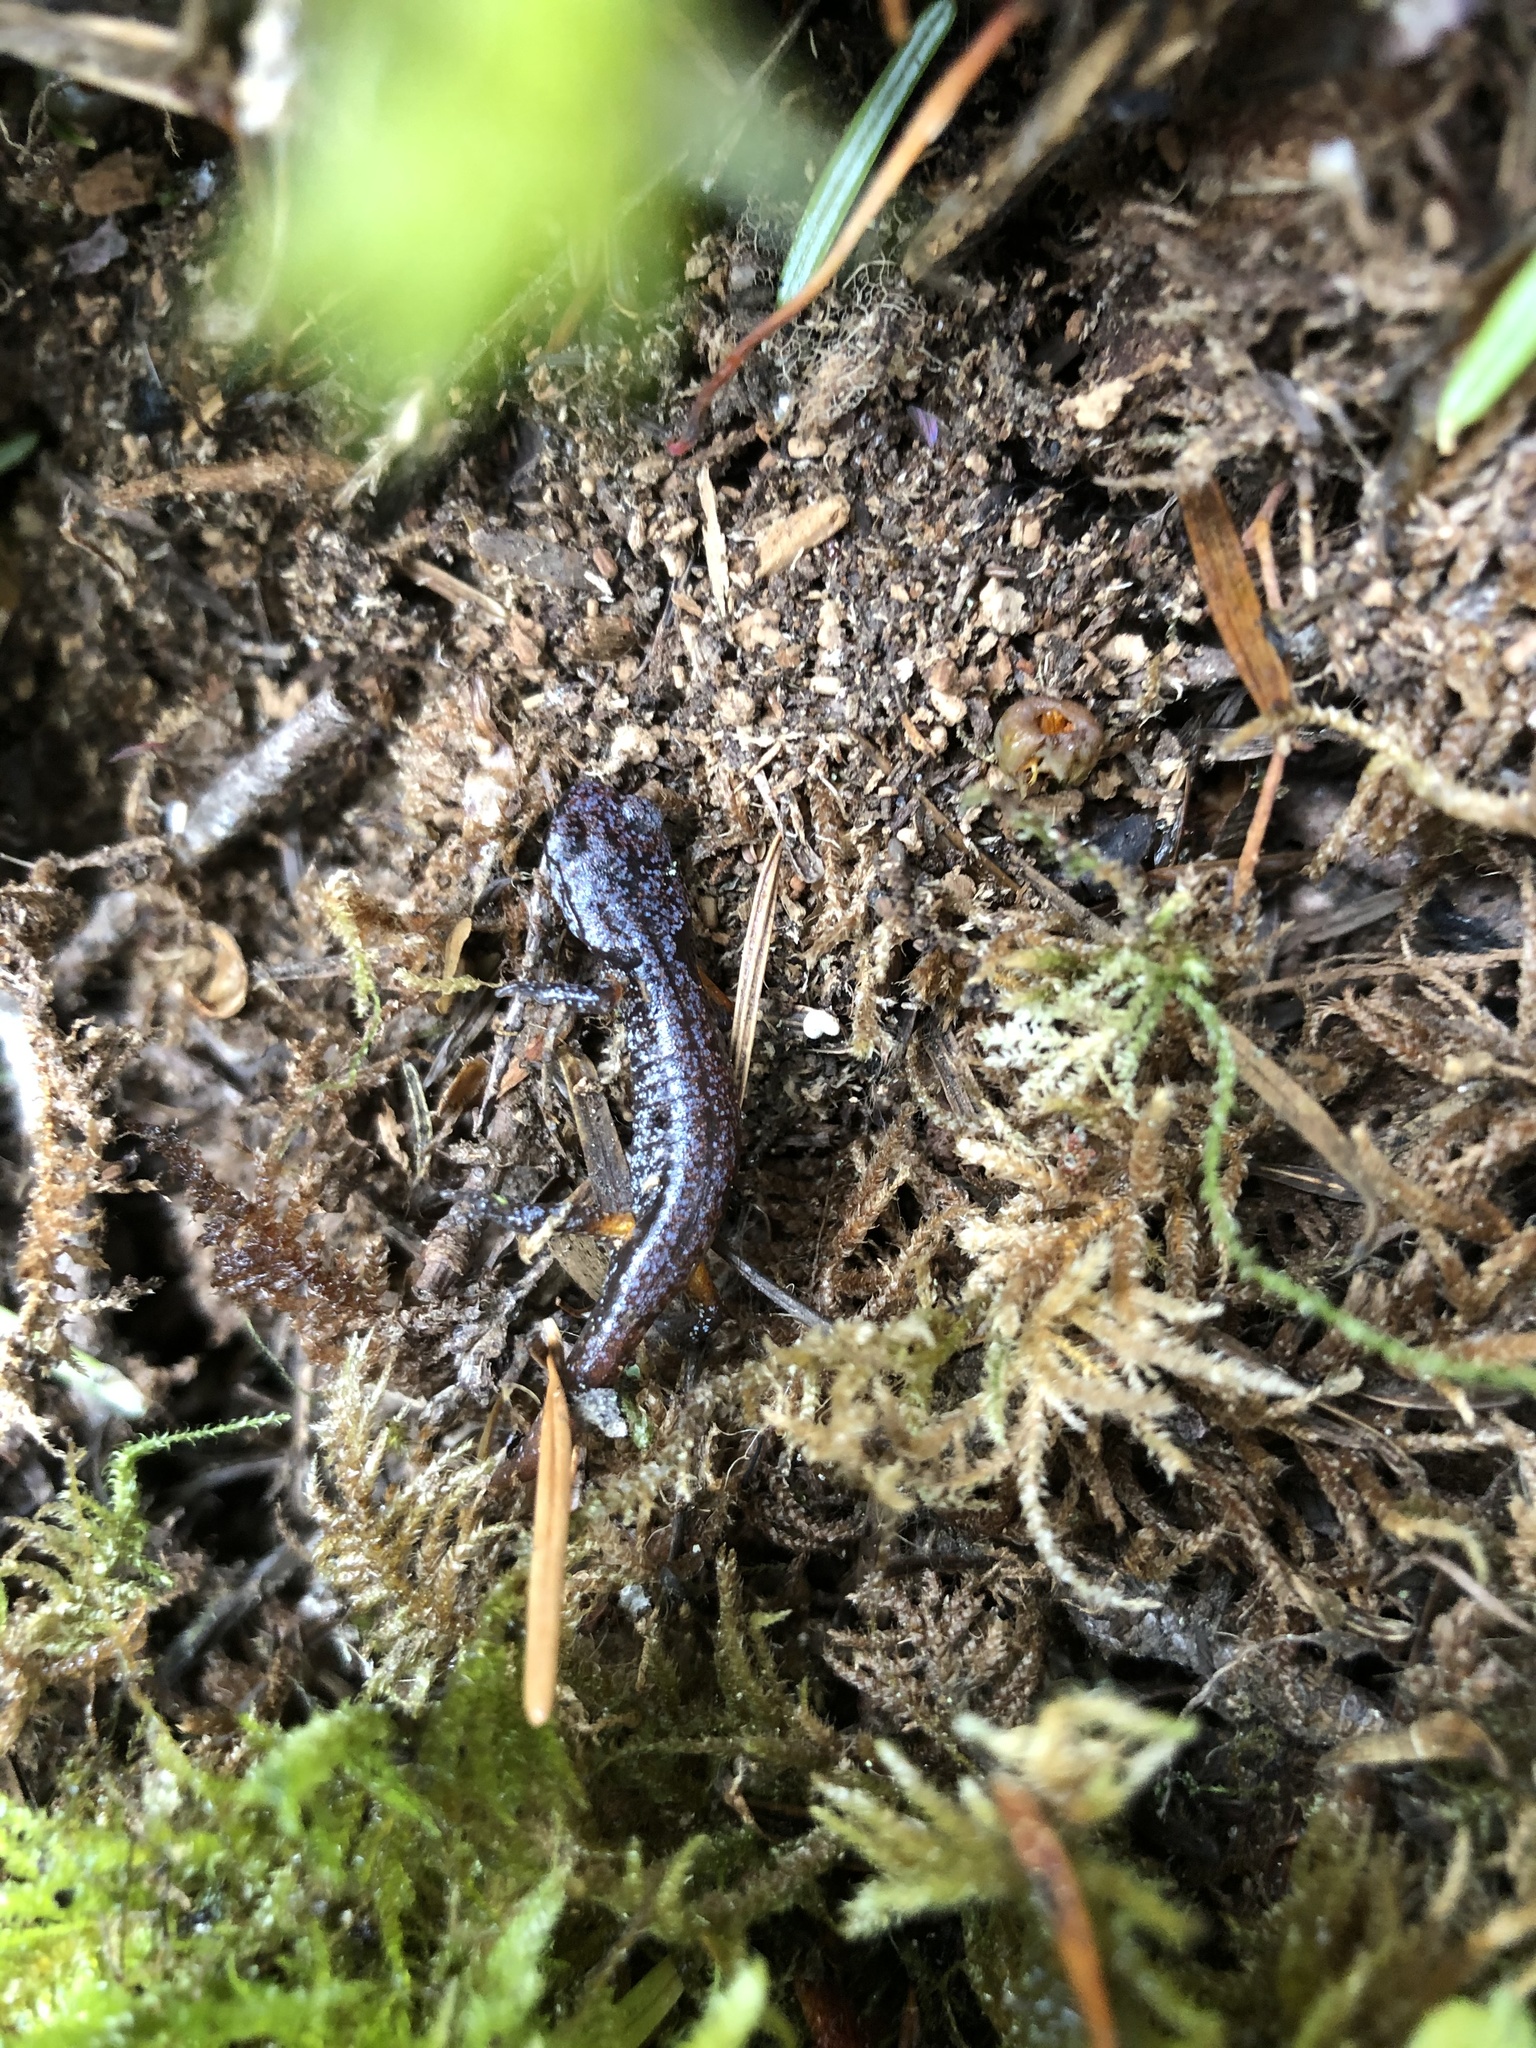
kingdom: Animalia
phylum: Chordata
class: Amphibia
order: Caudata
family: Plethodontidae
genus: Ensatina
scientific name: Ensatina eschscholtzii
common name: Ensatina
